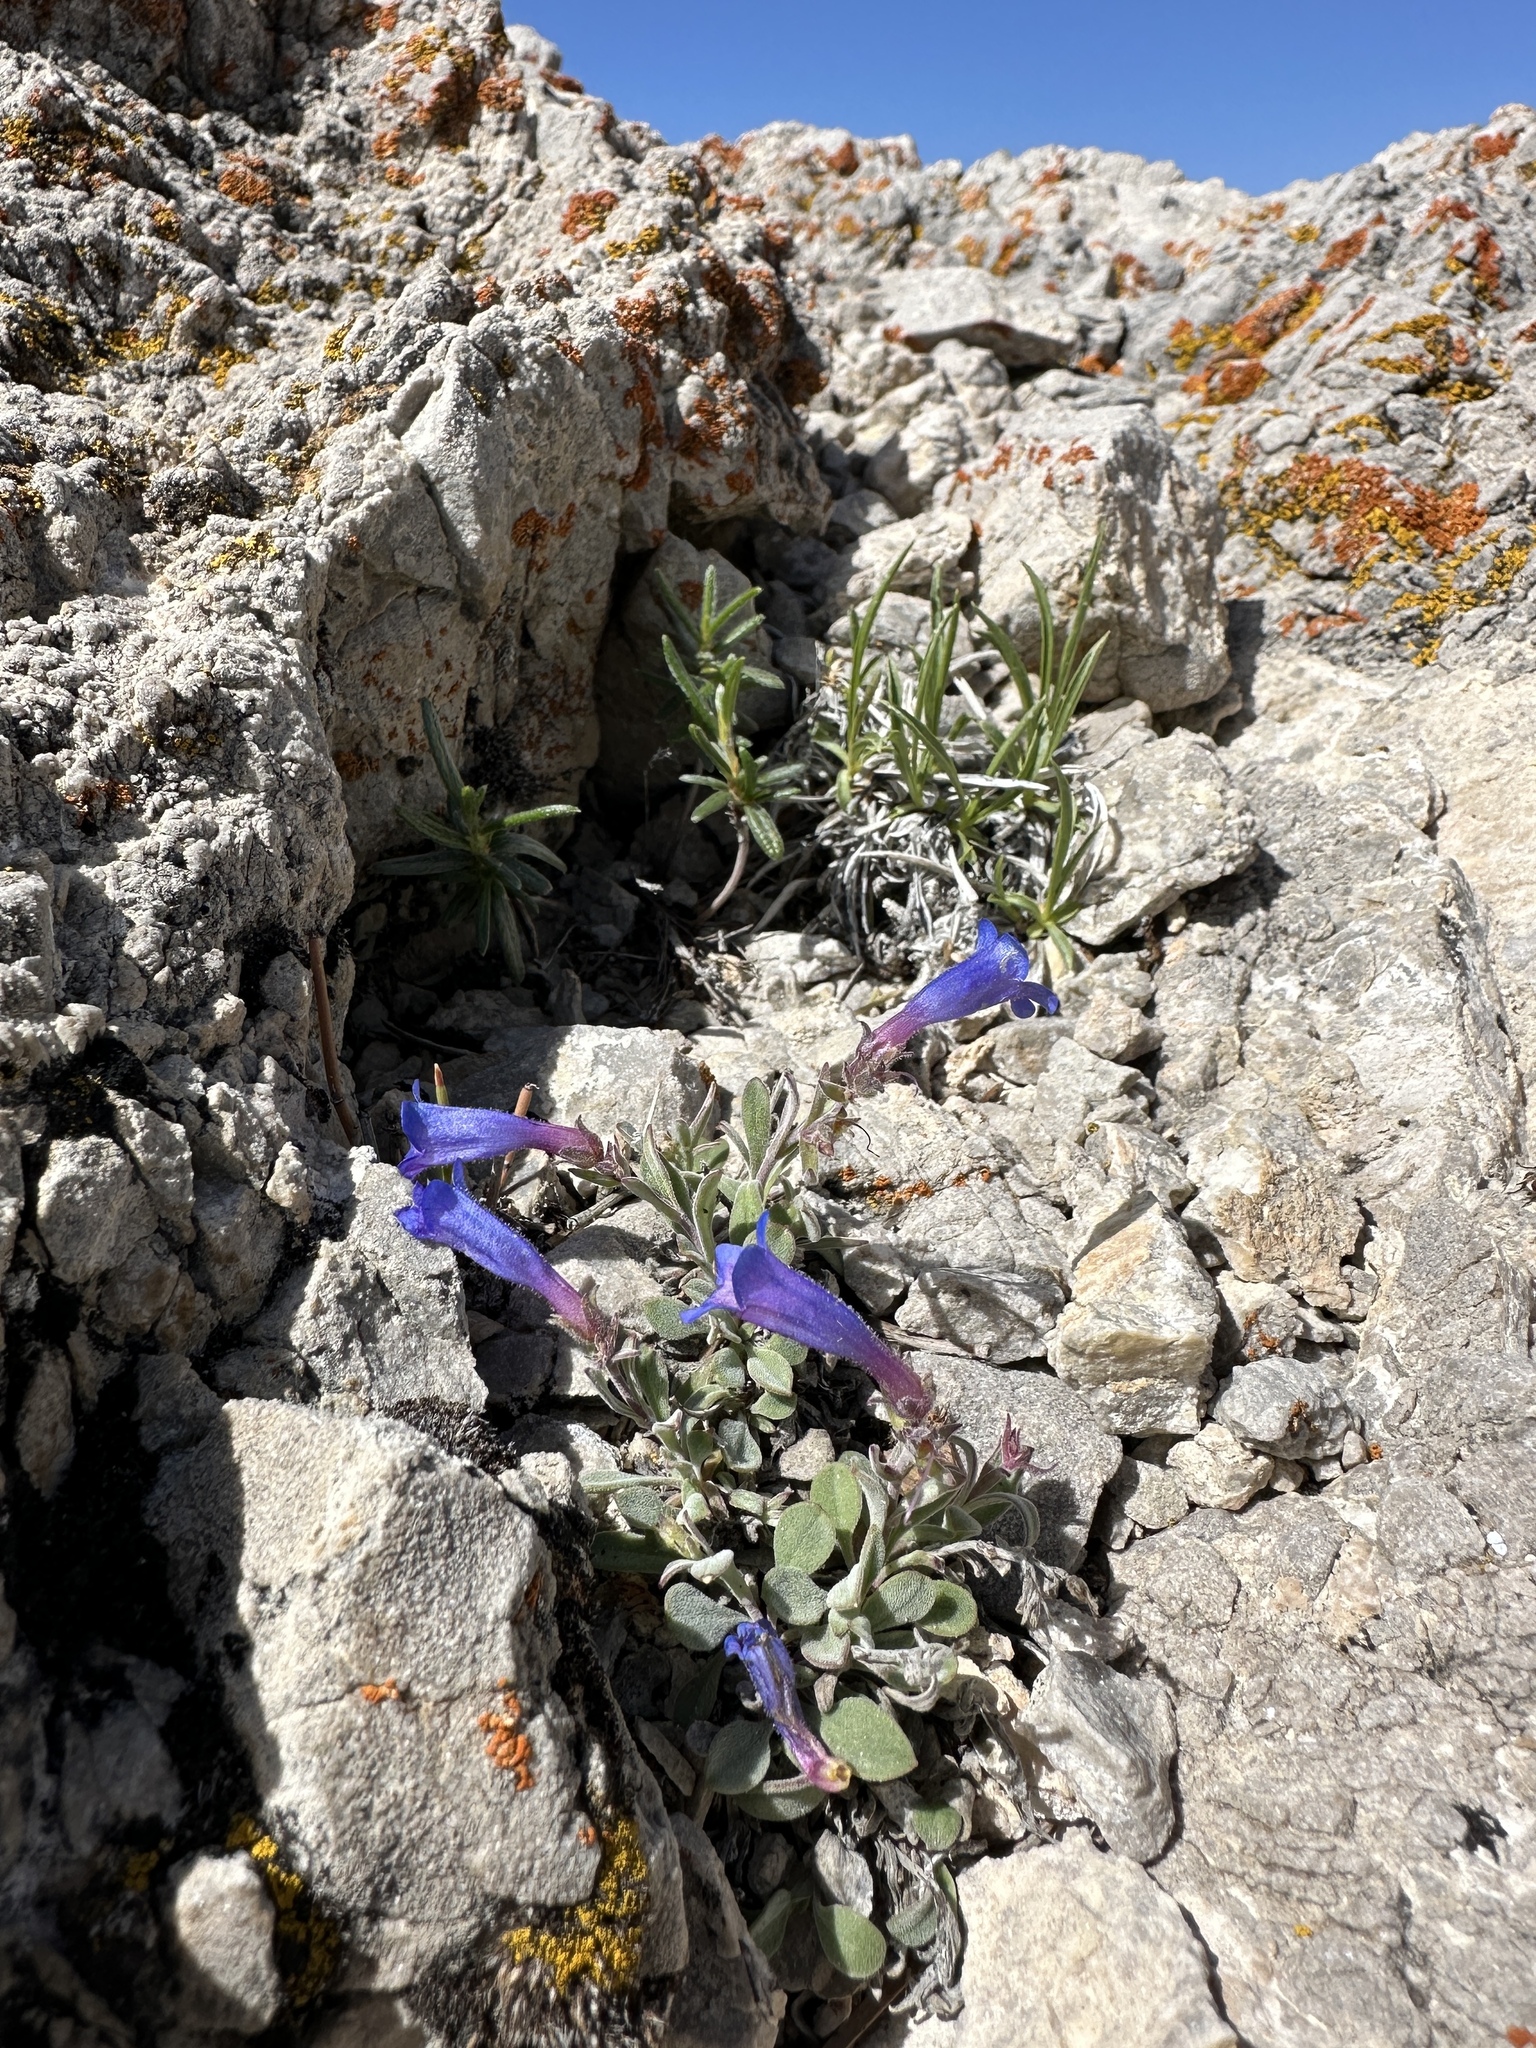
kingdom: Plantae
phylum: Tracheophyta
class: Magnoliopsida
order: Lamiales
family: Plantaginaceae
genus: Penstemon
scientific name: Penstemon nanus
